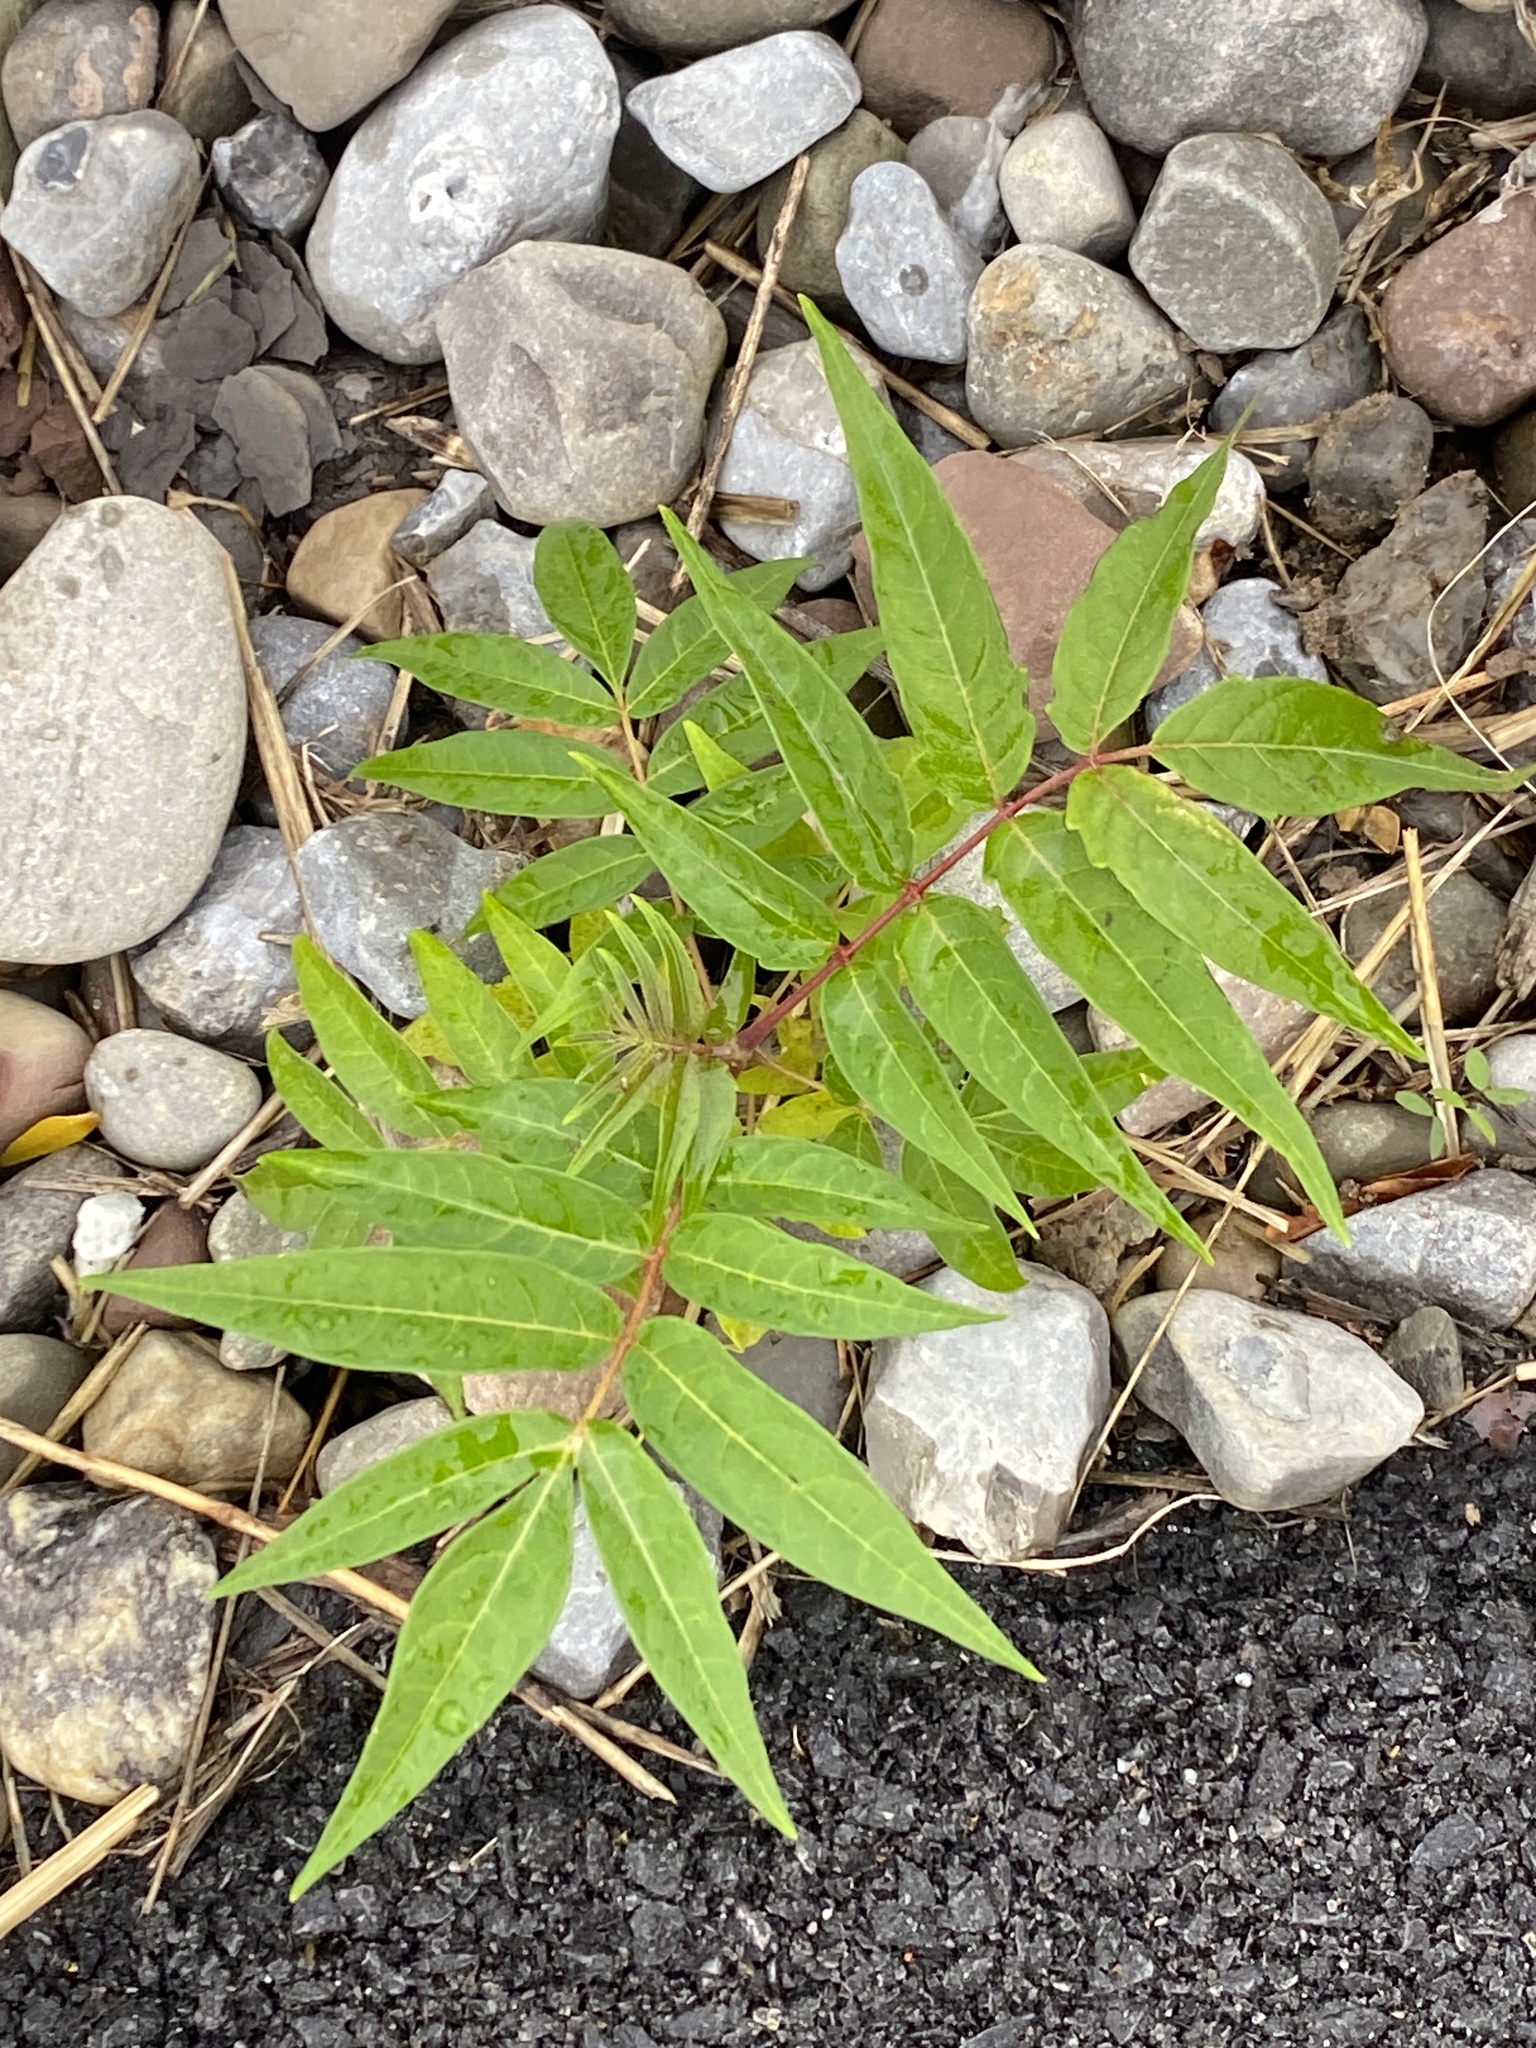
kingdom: Plantae
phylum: Tracheophyta
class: Magnoliopsida
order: Sapindales
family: Simaroubaceae
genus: Ailanthus
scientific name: Ailanthus altissima
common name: Tree-of-heaven
